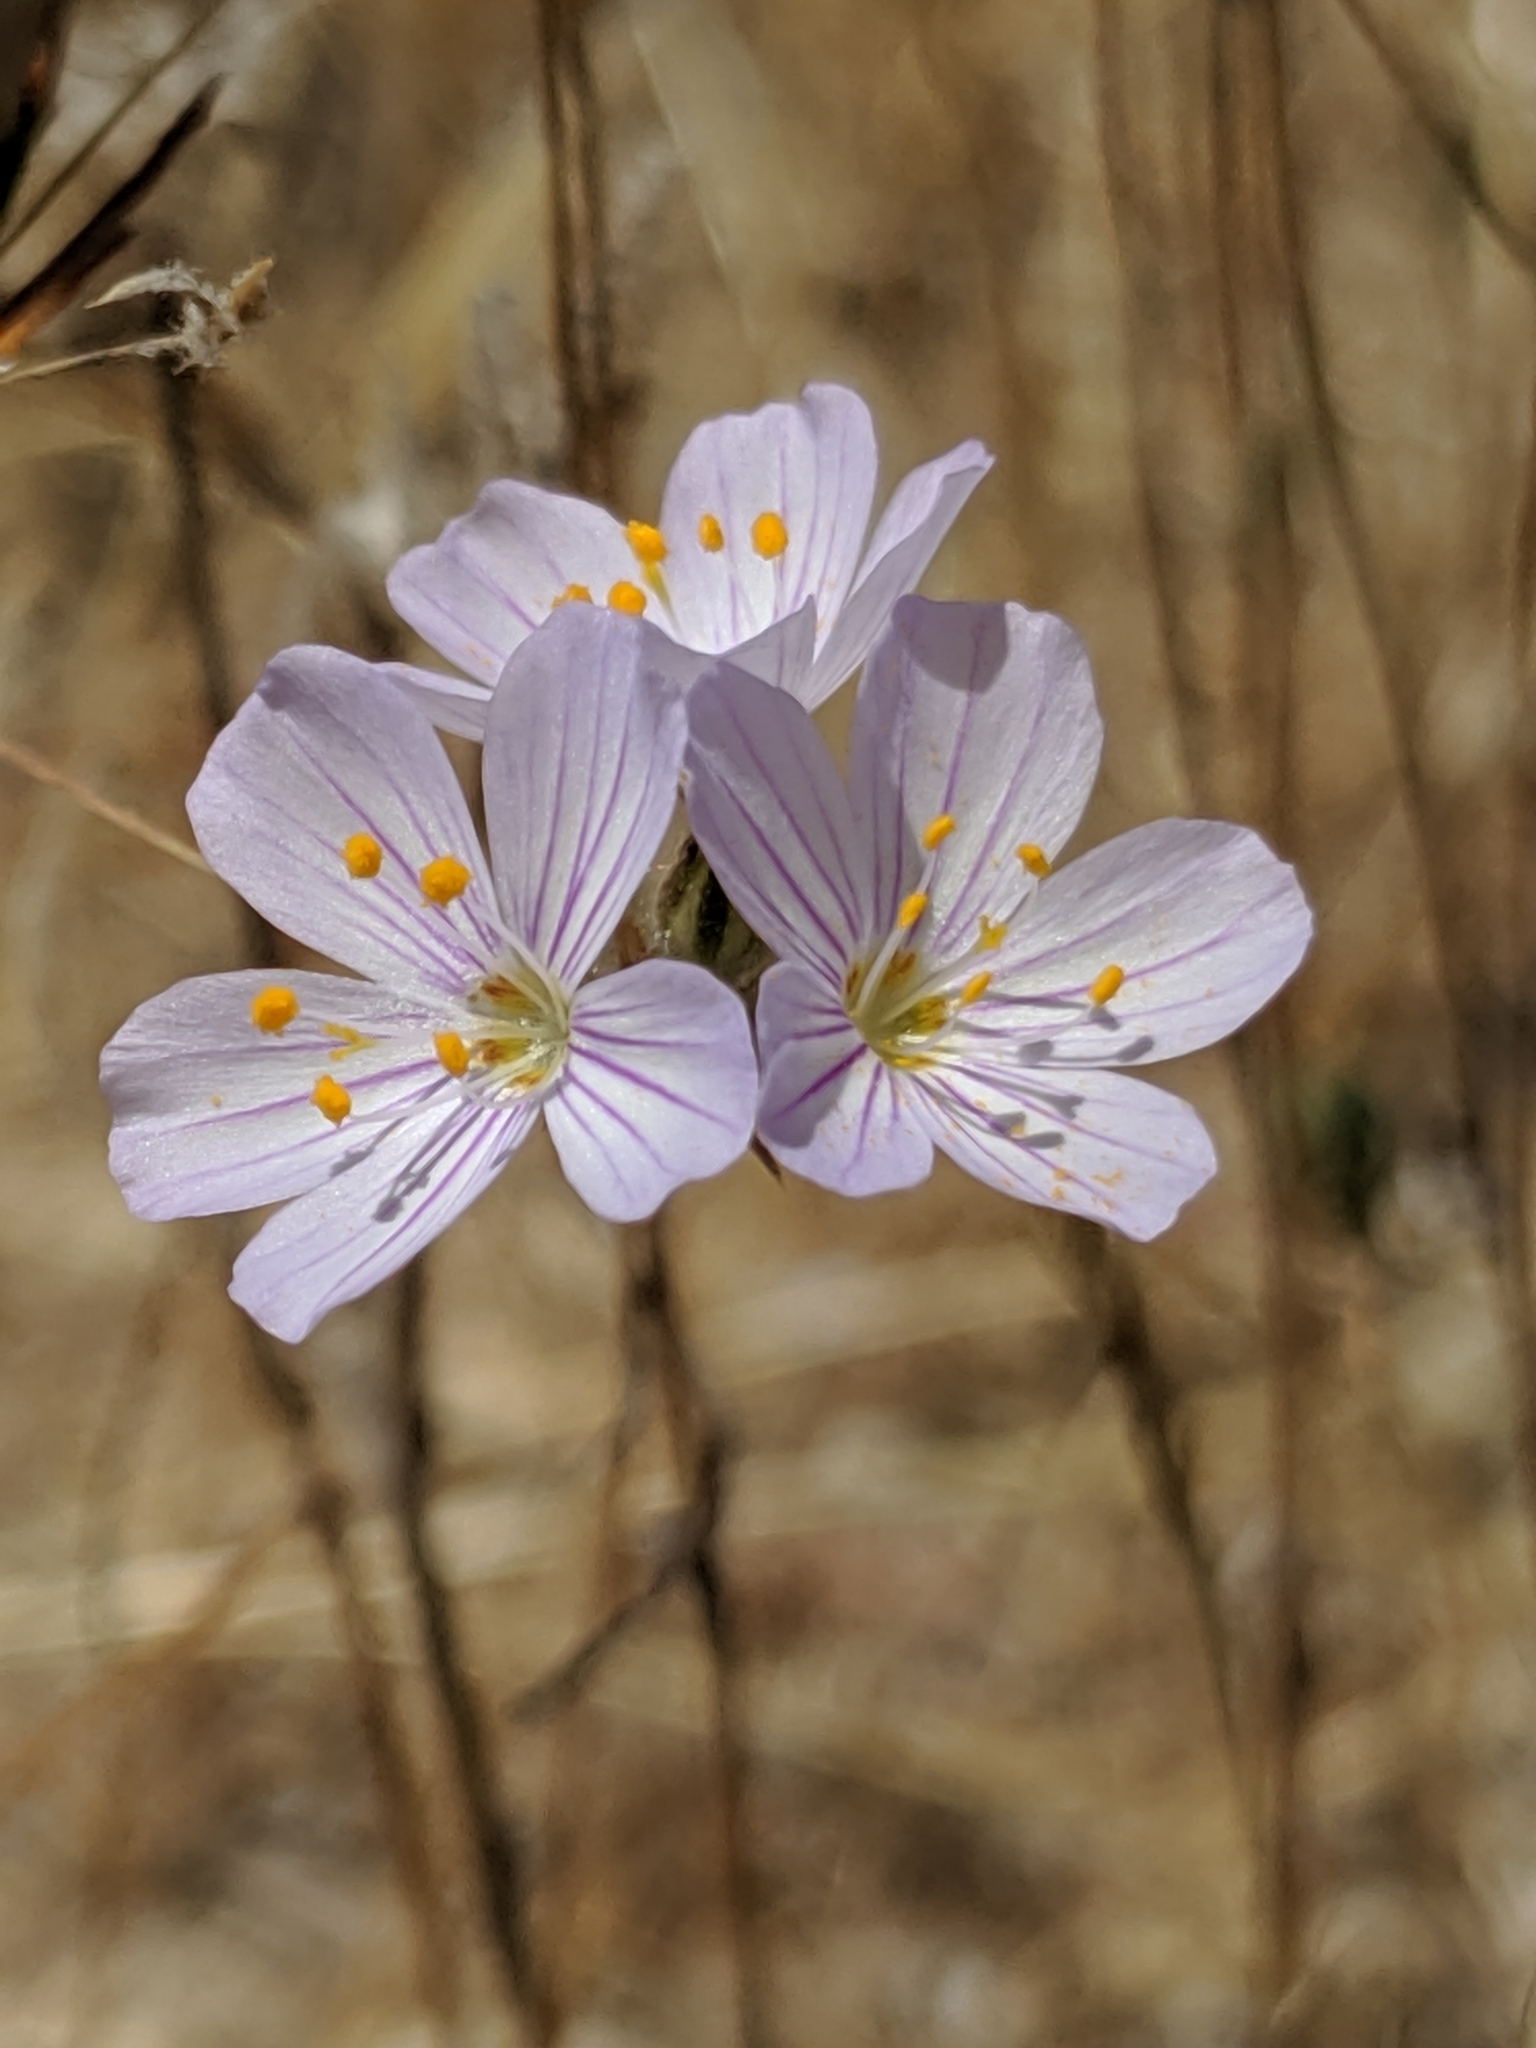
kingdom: Plantae
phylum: Tracheophyta
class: Magnoliopsida
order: Ericales
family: Polemoniaceae
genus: Leptosiphon
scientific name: Leptosiphon liniflorus
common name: Narrowflower flaxflower
